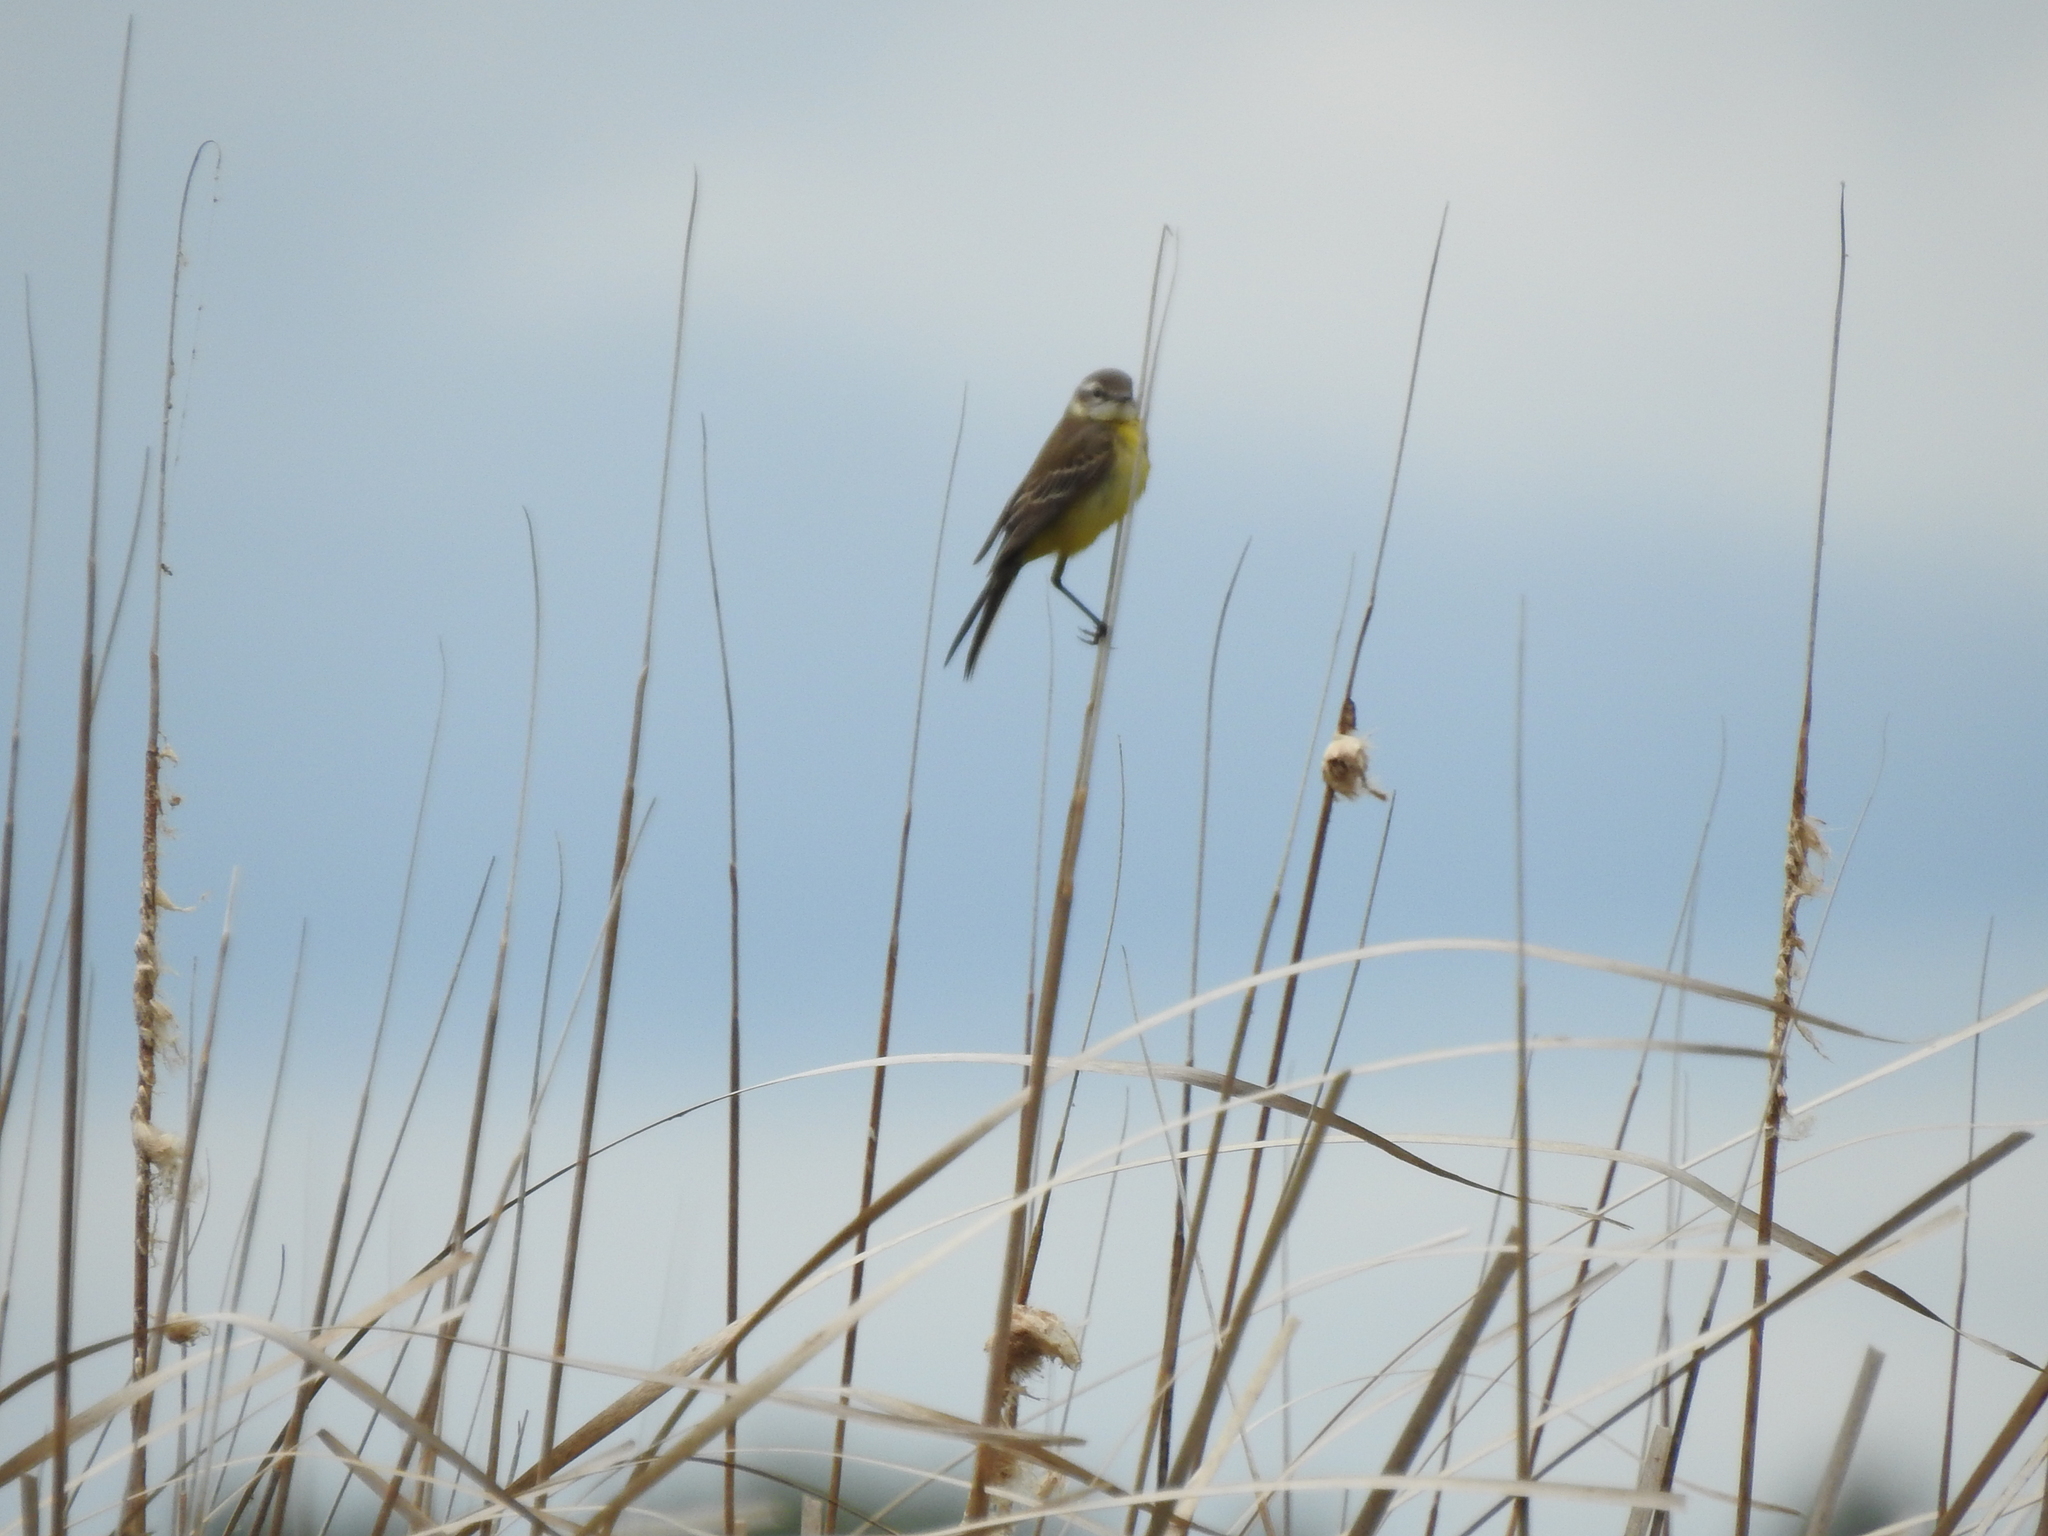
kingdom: Animalia
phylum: Chordata
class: Aves
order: Passeriformes
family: Motacillidae
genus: Motacilla
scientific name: Motacilla flava
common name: Western yellow wagtail
